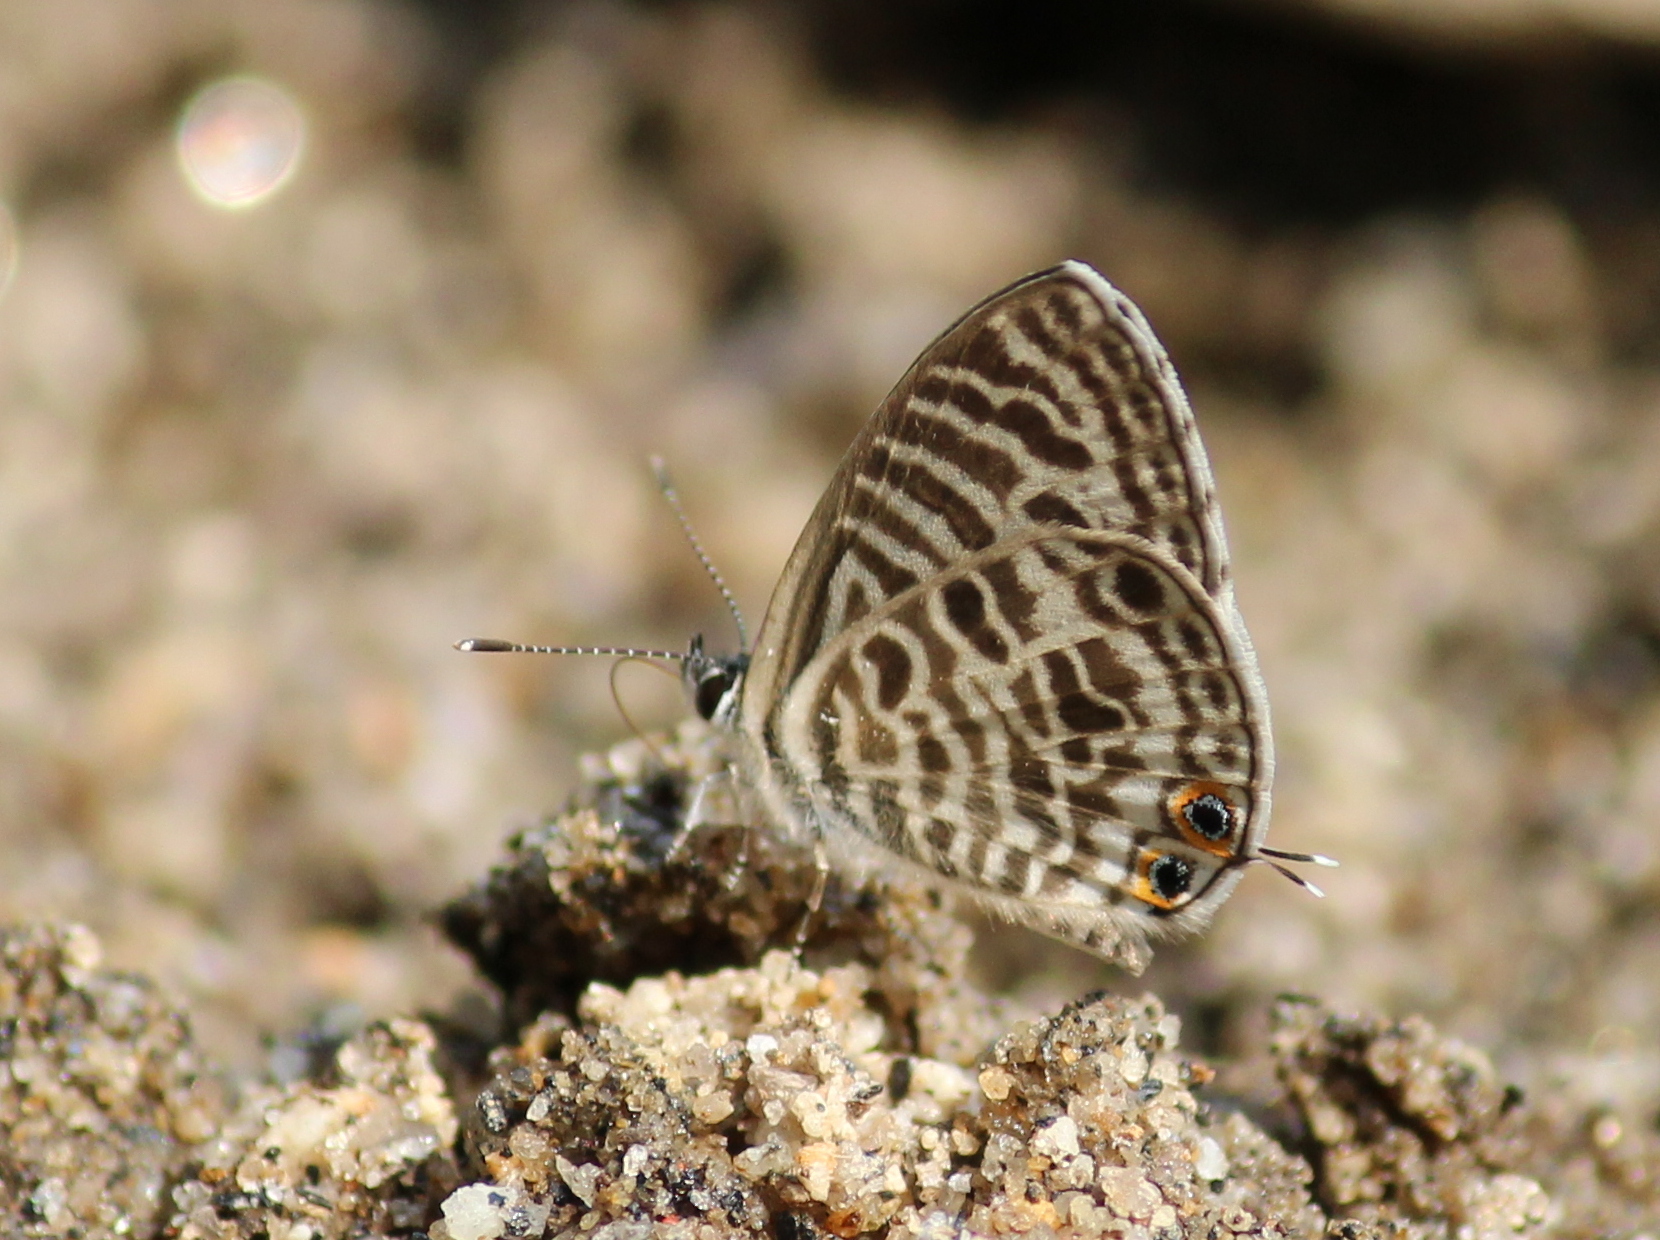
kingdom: Animalia
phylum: Arthropoda
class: Insecta
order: Lepidoptera
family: Lycaenidae
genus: Leptotes
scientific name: Leptotes plinius
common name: Zebra blue
